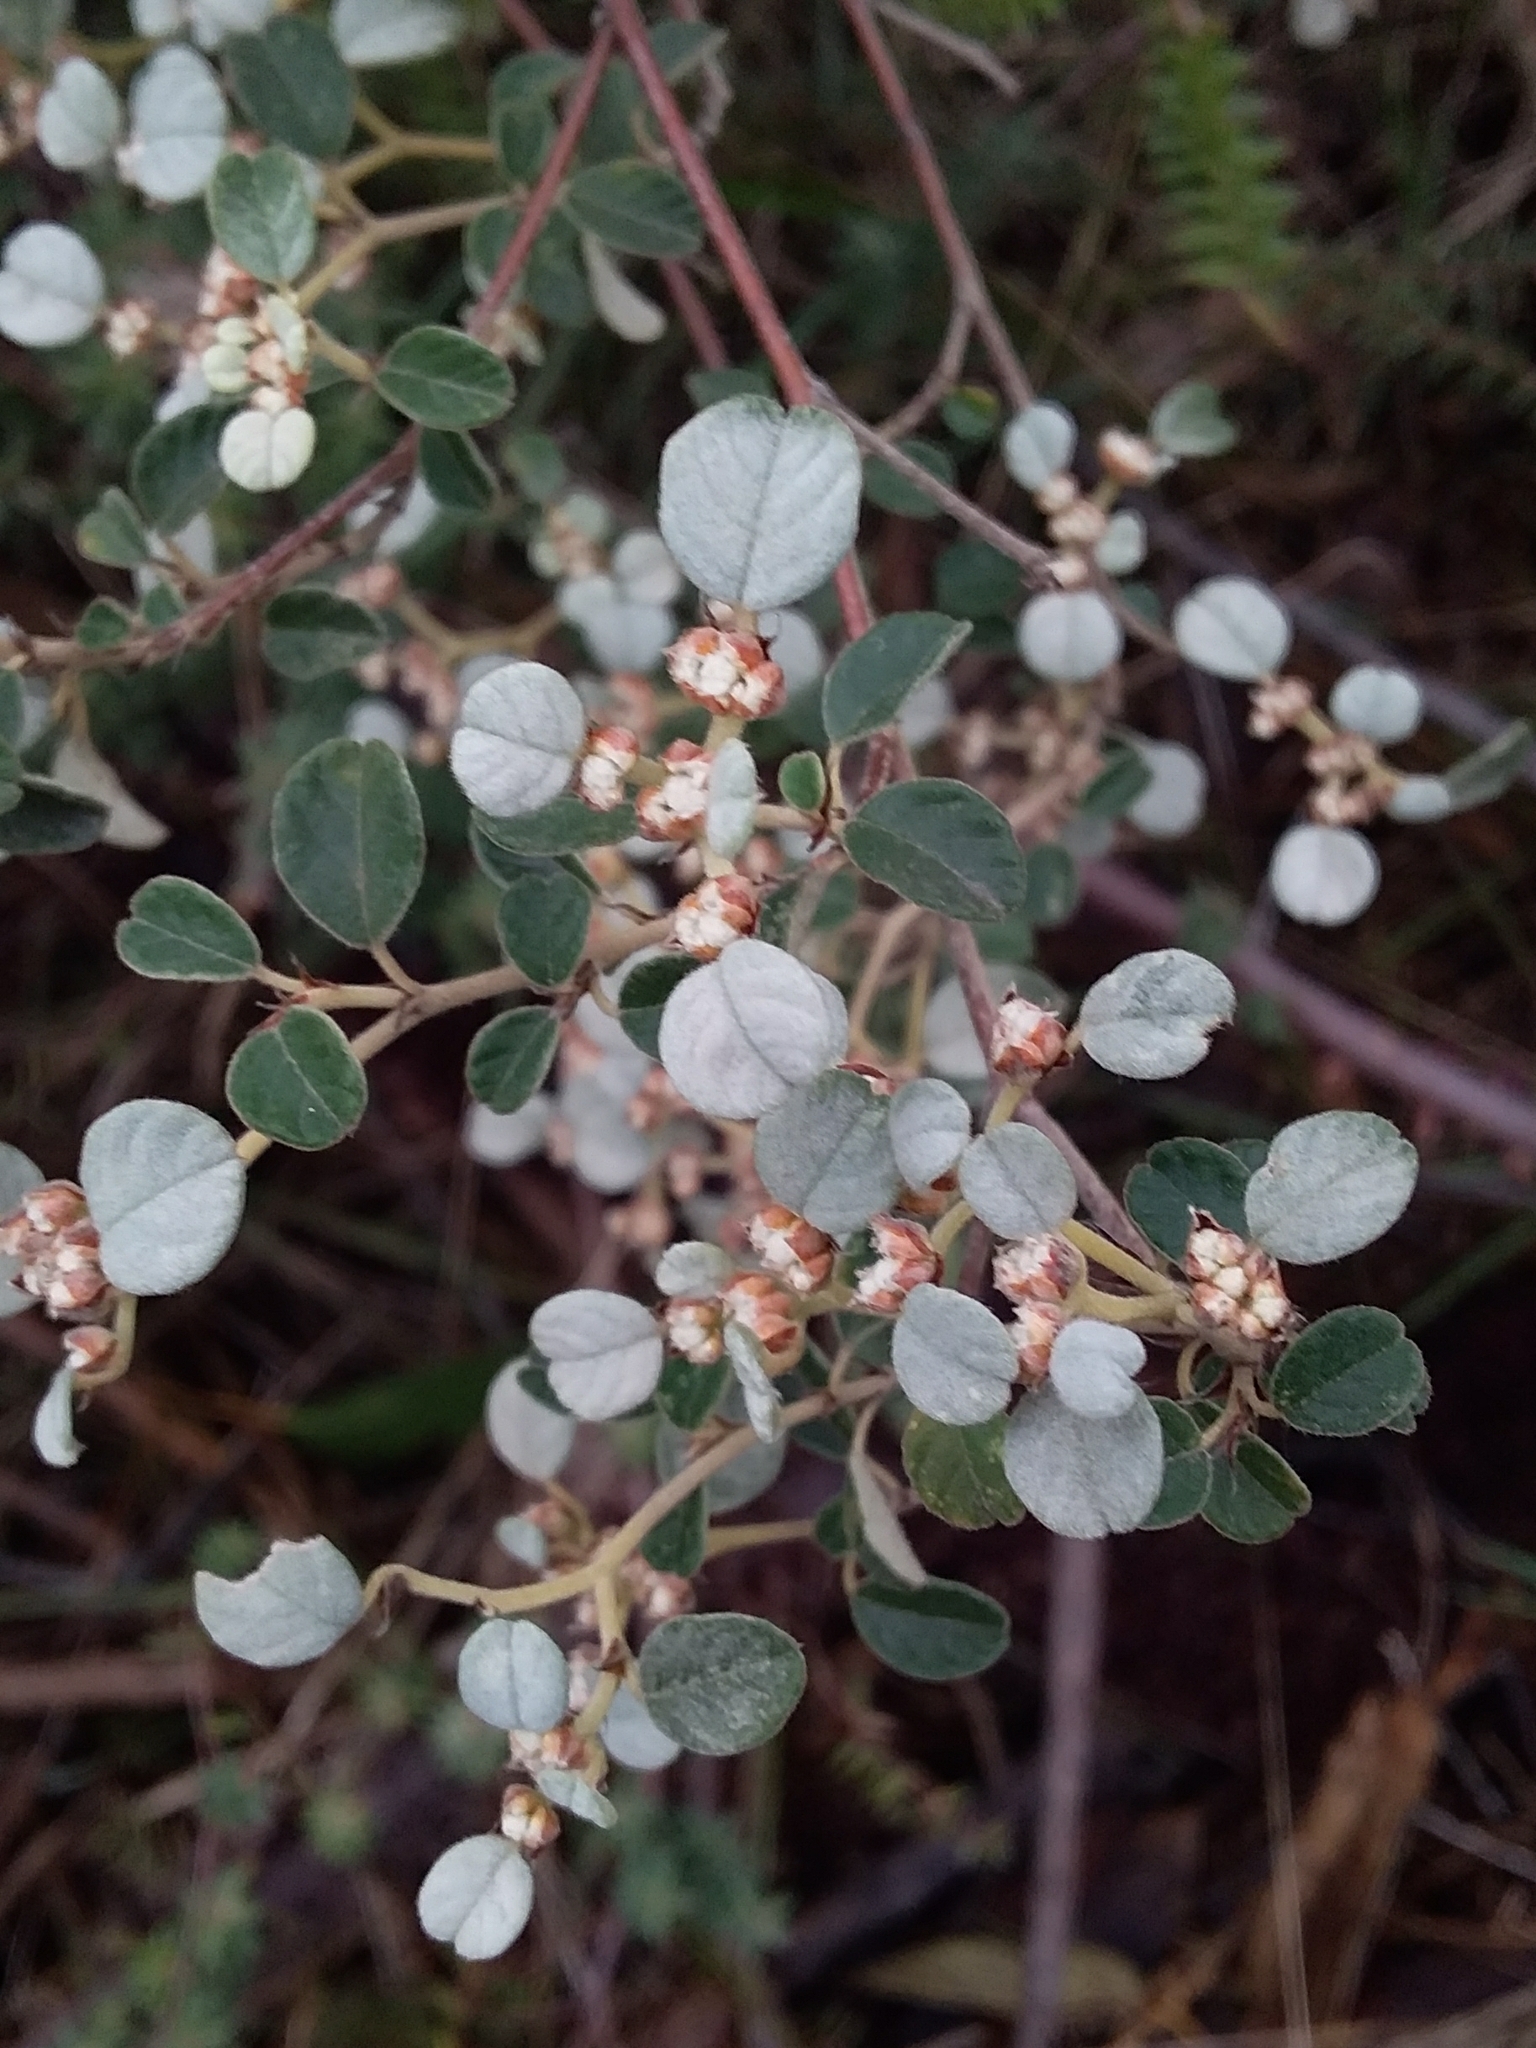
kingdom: Plantae
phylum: Tracheophyta
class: Magnoliopsida
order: Rosales
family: Rhamnaceae
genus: Spyridium
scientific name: Spyridium parvifolium
